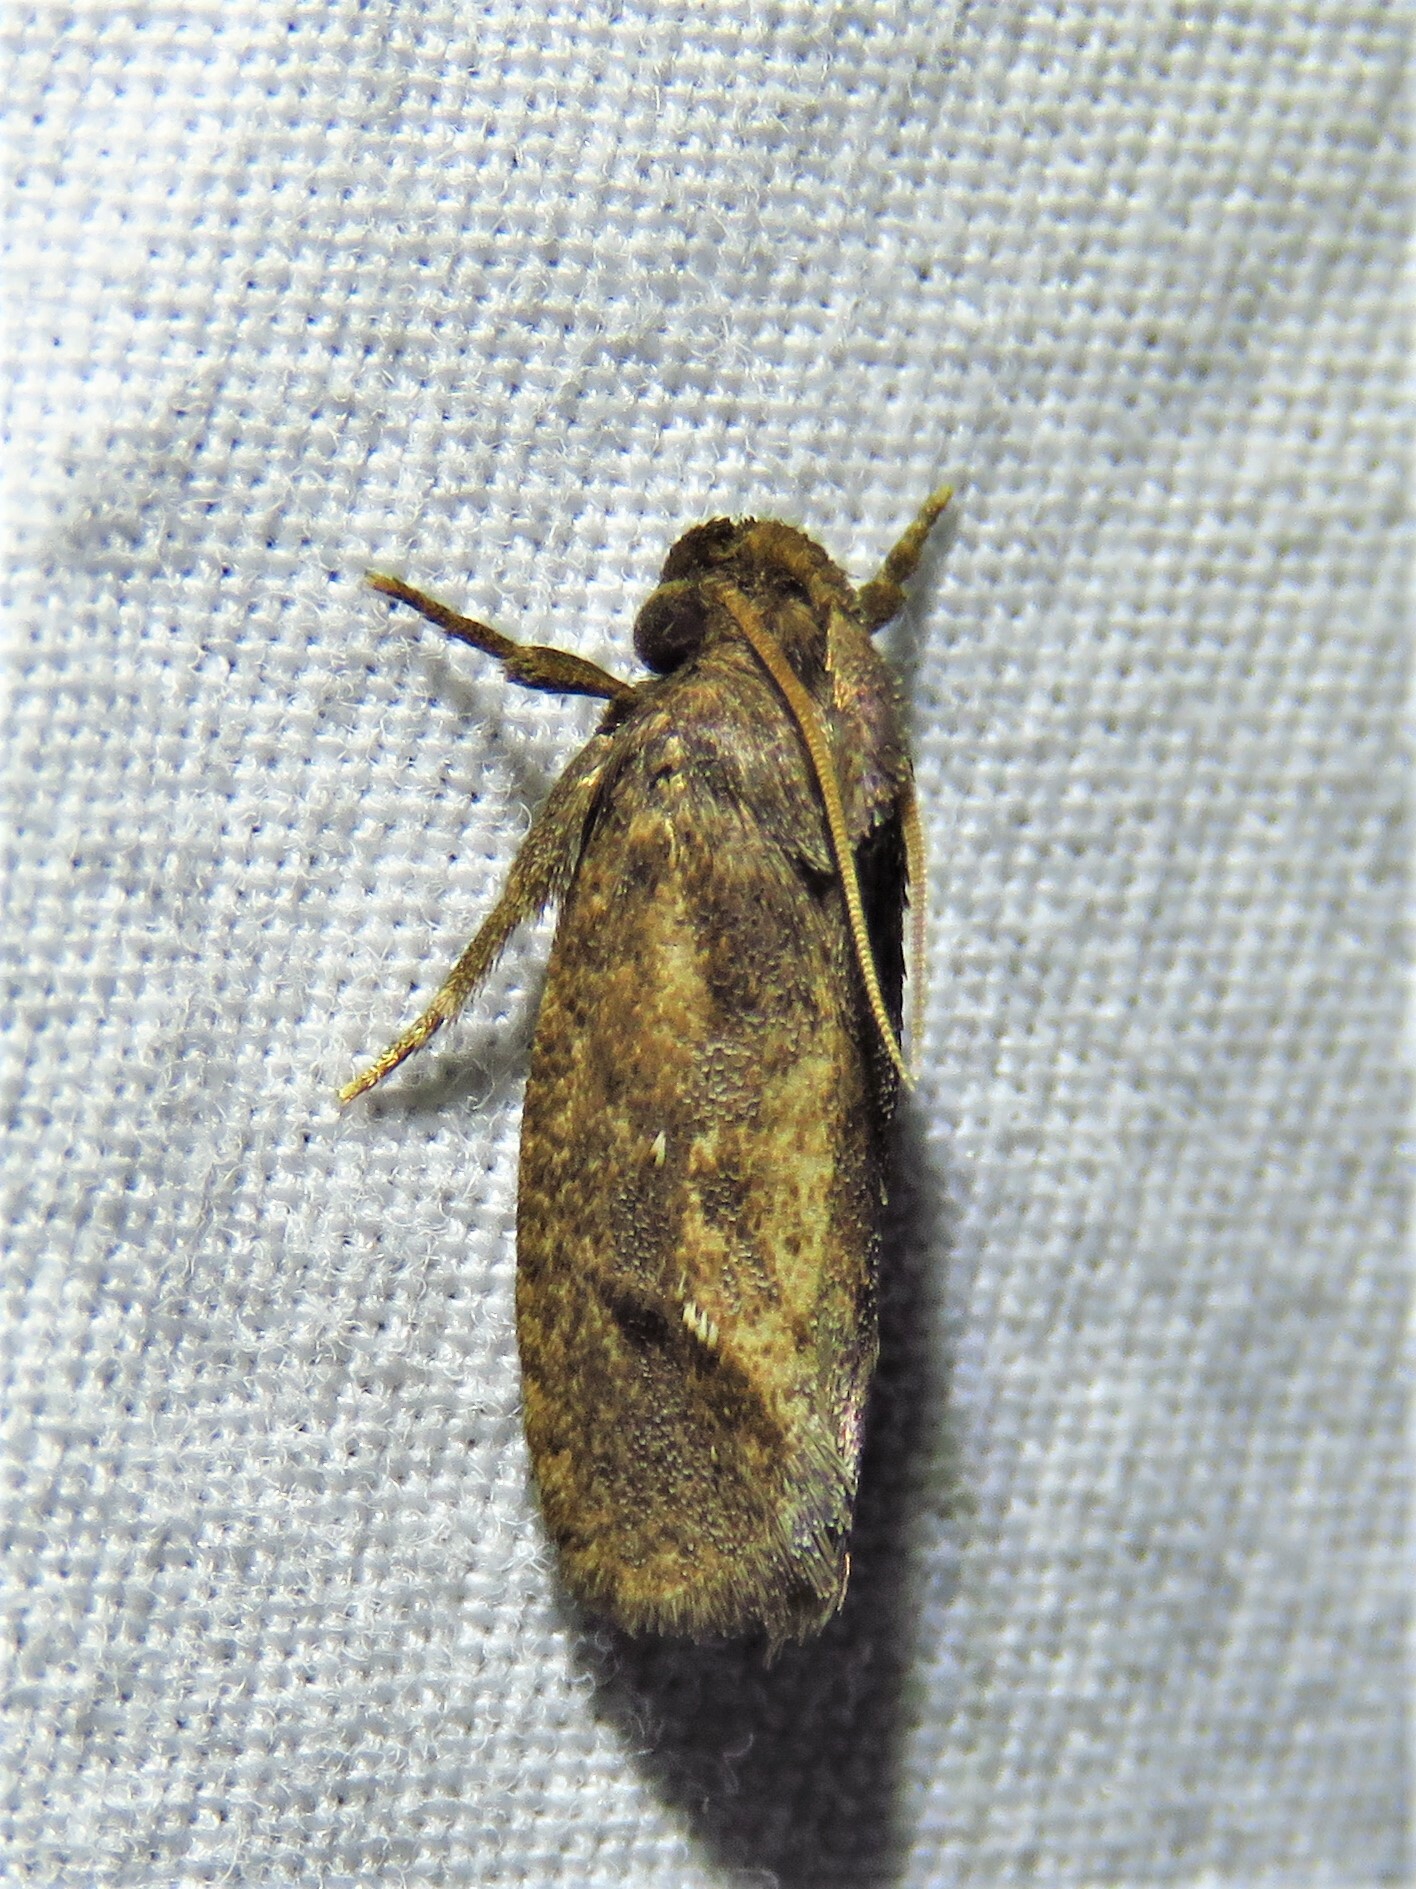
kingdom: Animalia
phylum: Arthropoda
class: Insecta
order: Lepidoptera
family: Tineidae
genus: Acrolophus
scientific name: Acrolophus texanella
